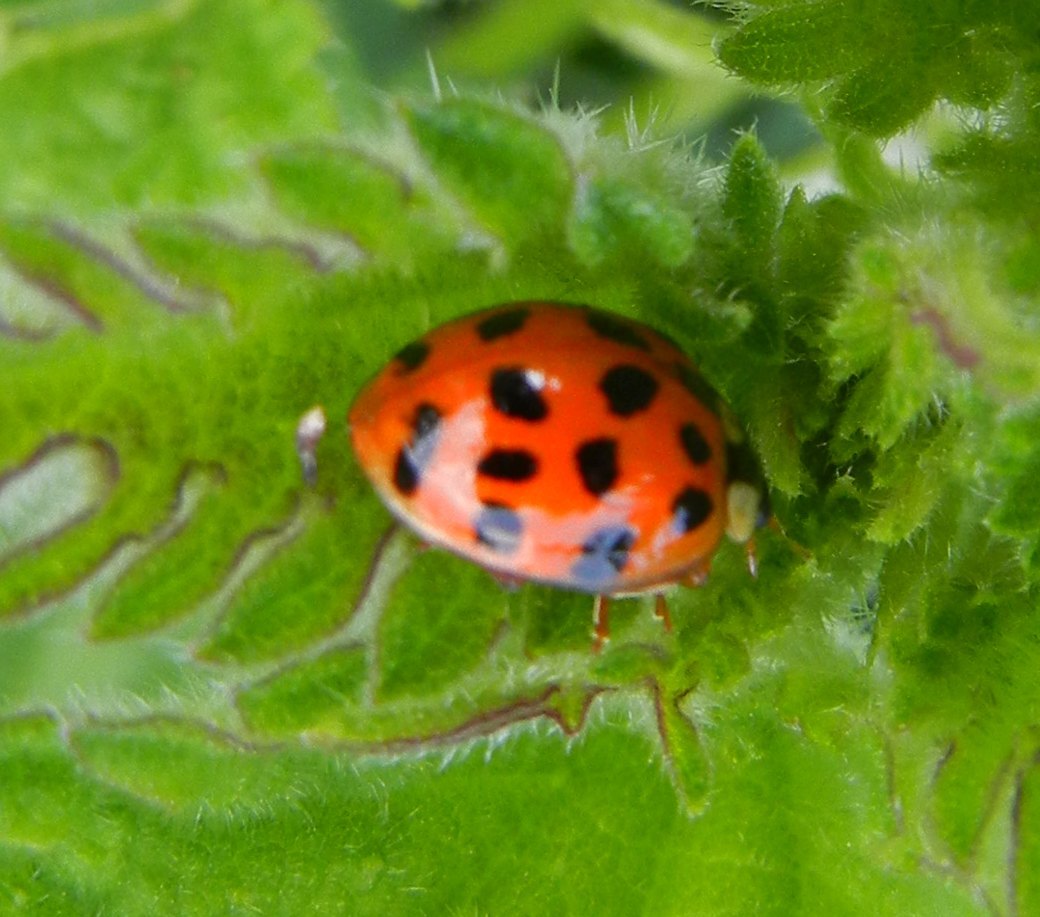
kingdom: Animalia
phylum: Arthropoda
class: Insecta
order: Coleoptera
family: Coccinellidae
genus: Harmonia
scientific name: Harmonia axyridis
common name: Harlequin ladybird
